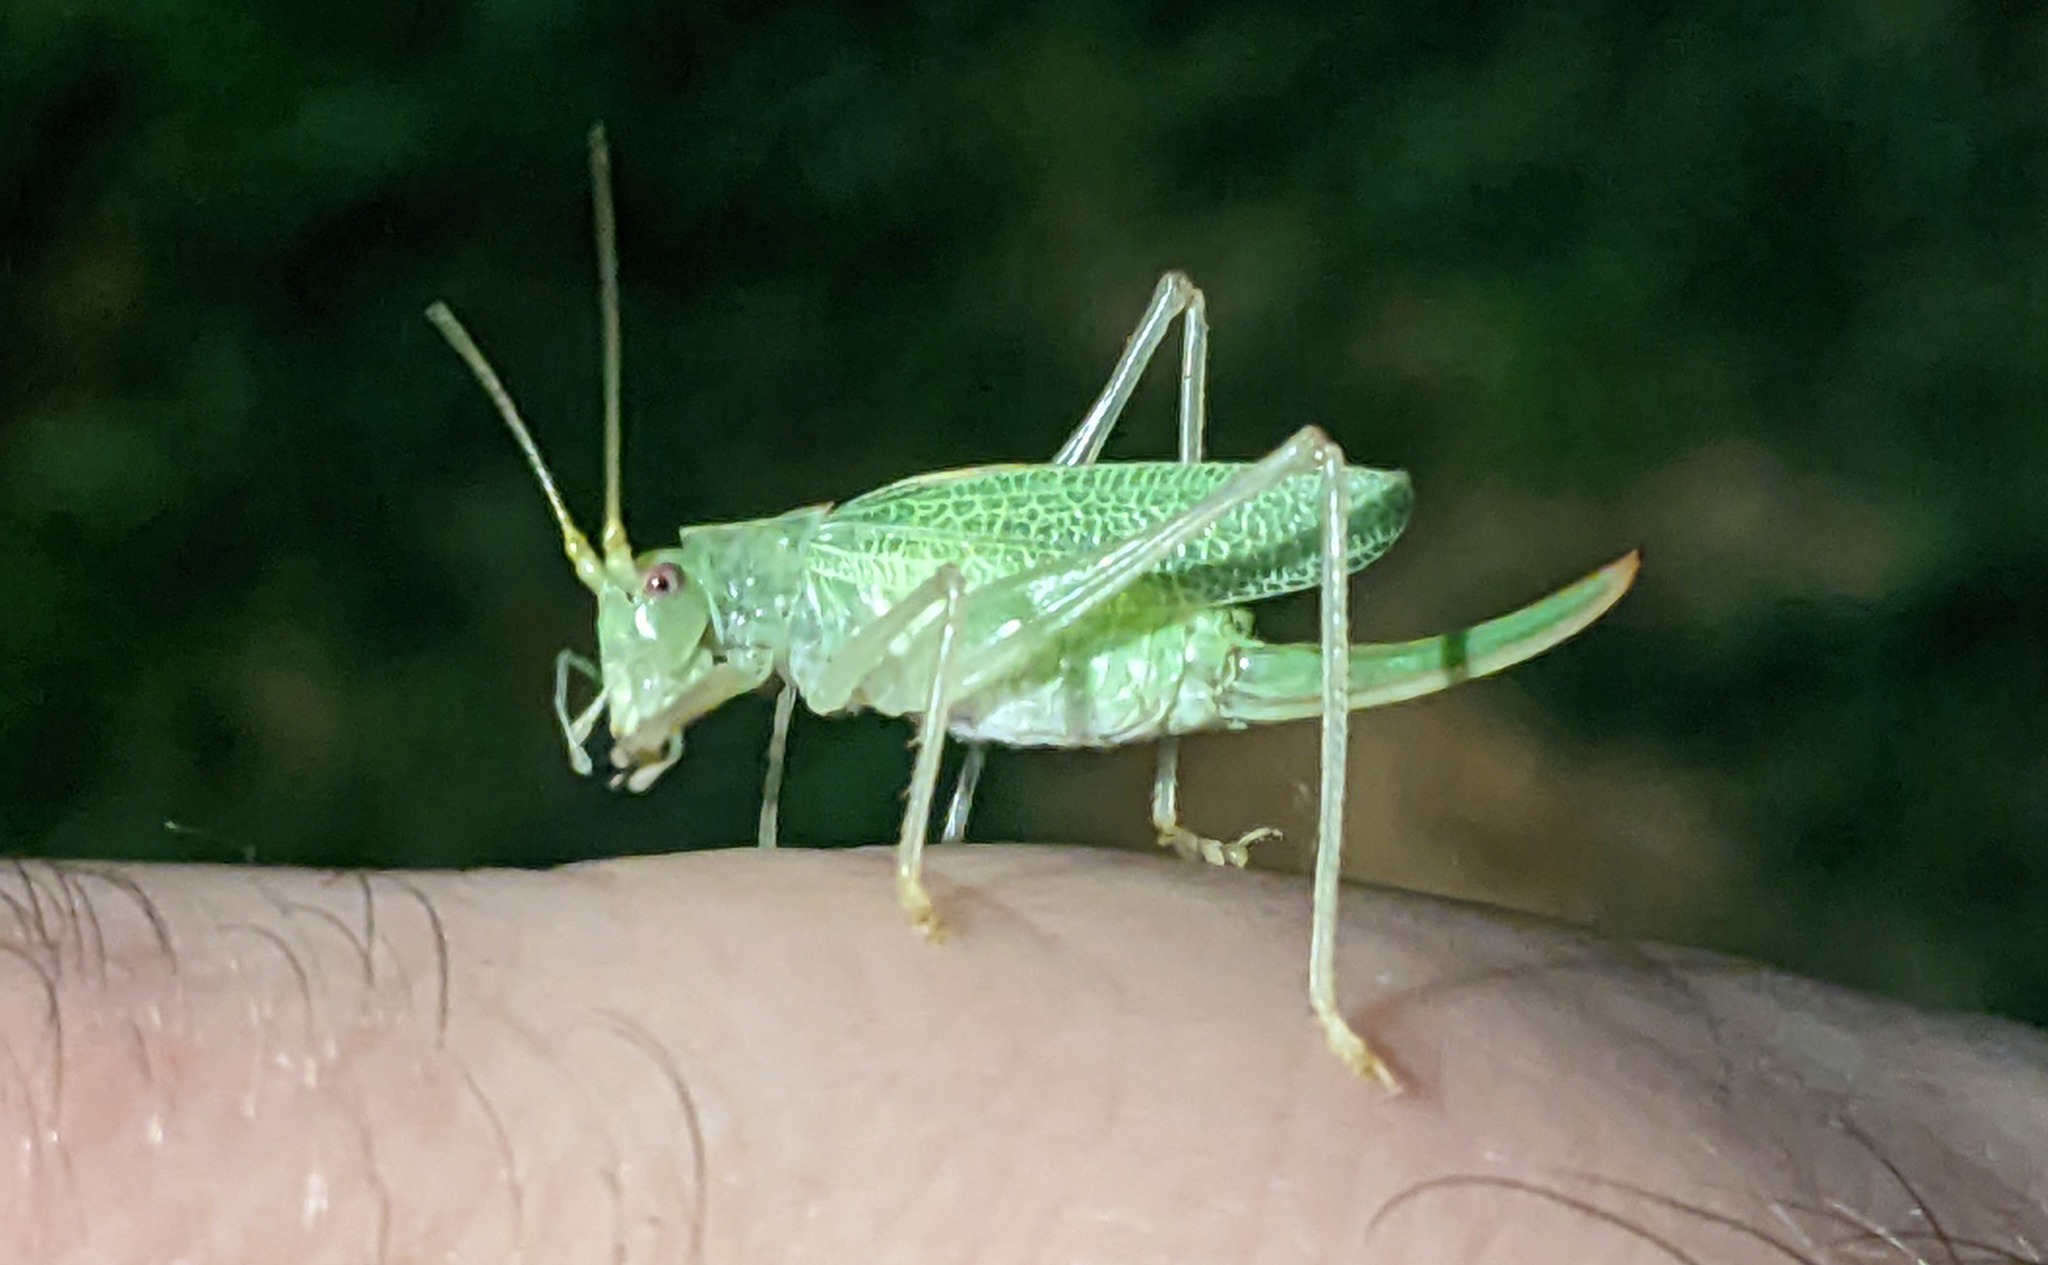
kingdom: Animalia
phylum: Arthropoda
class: Insecta
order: Orthoptera
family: Tettigoniidae
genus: Meconema
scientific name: Meconema thalassinum
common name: Oak bush-cricket
